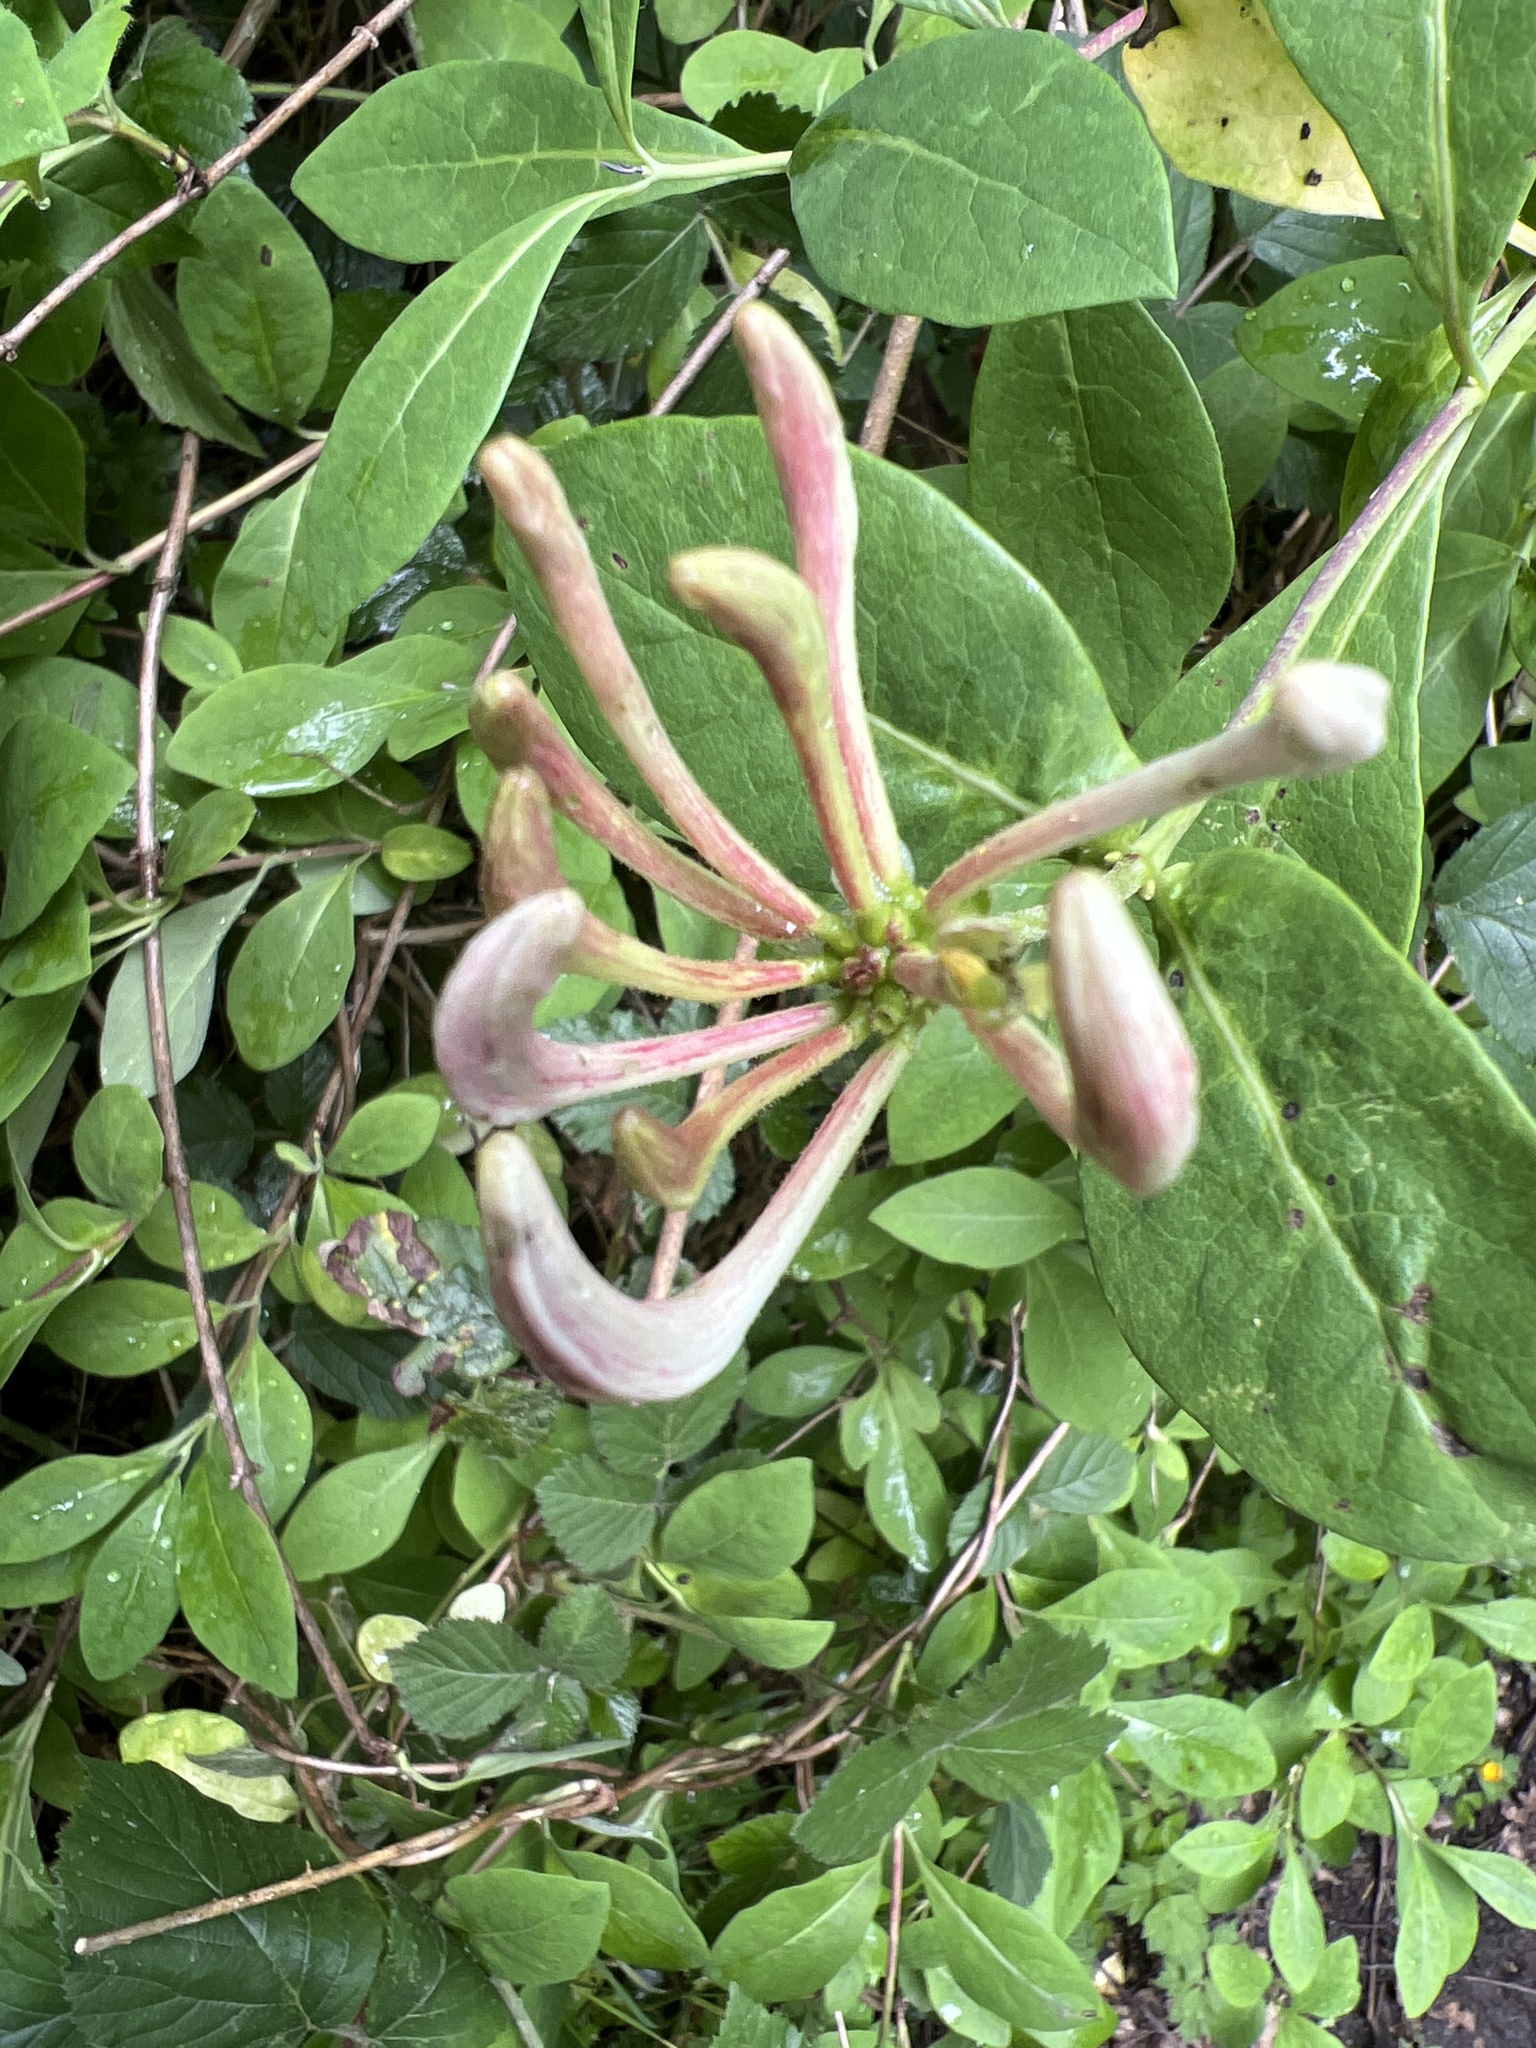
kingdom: Plantae
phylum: Tracheophyta
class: Magnoliopsida
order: Dipsacales
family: Caprifoliaceae
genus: Lonicera
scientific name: Lonicera periclymenum
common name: European honeysuckle
